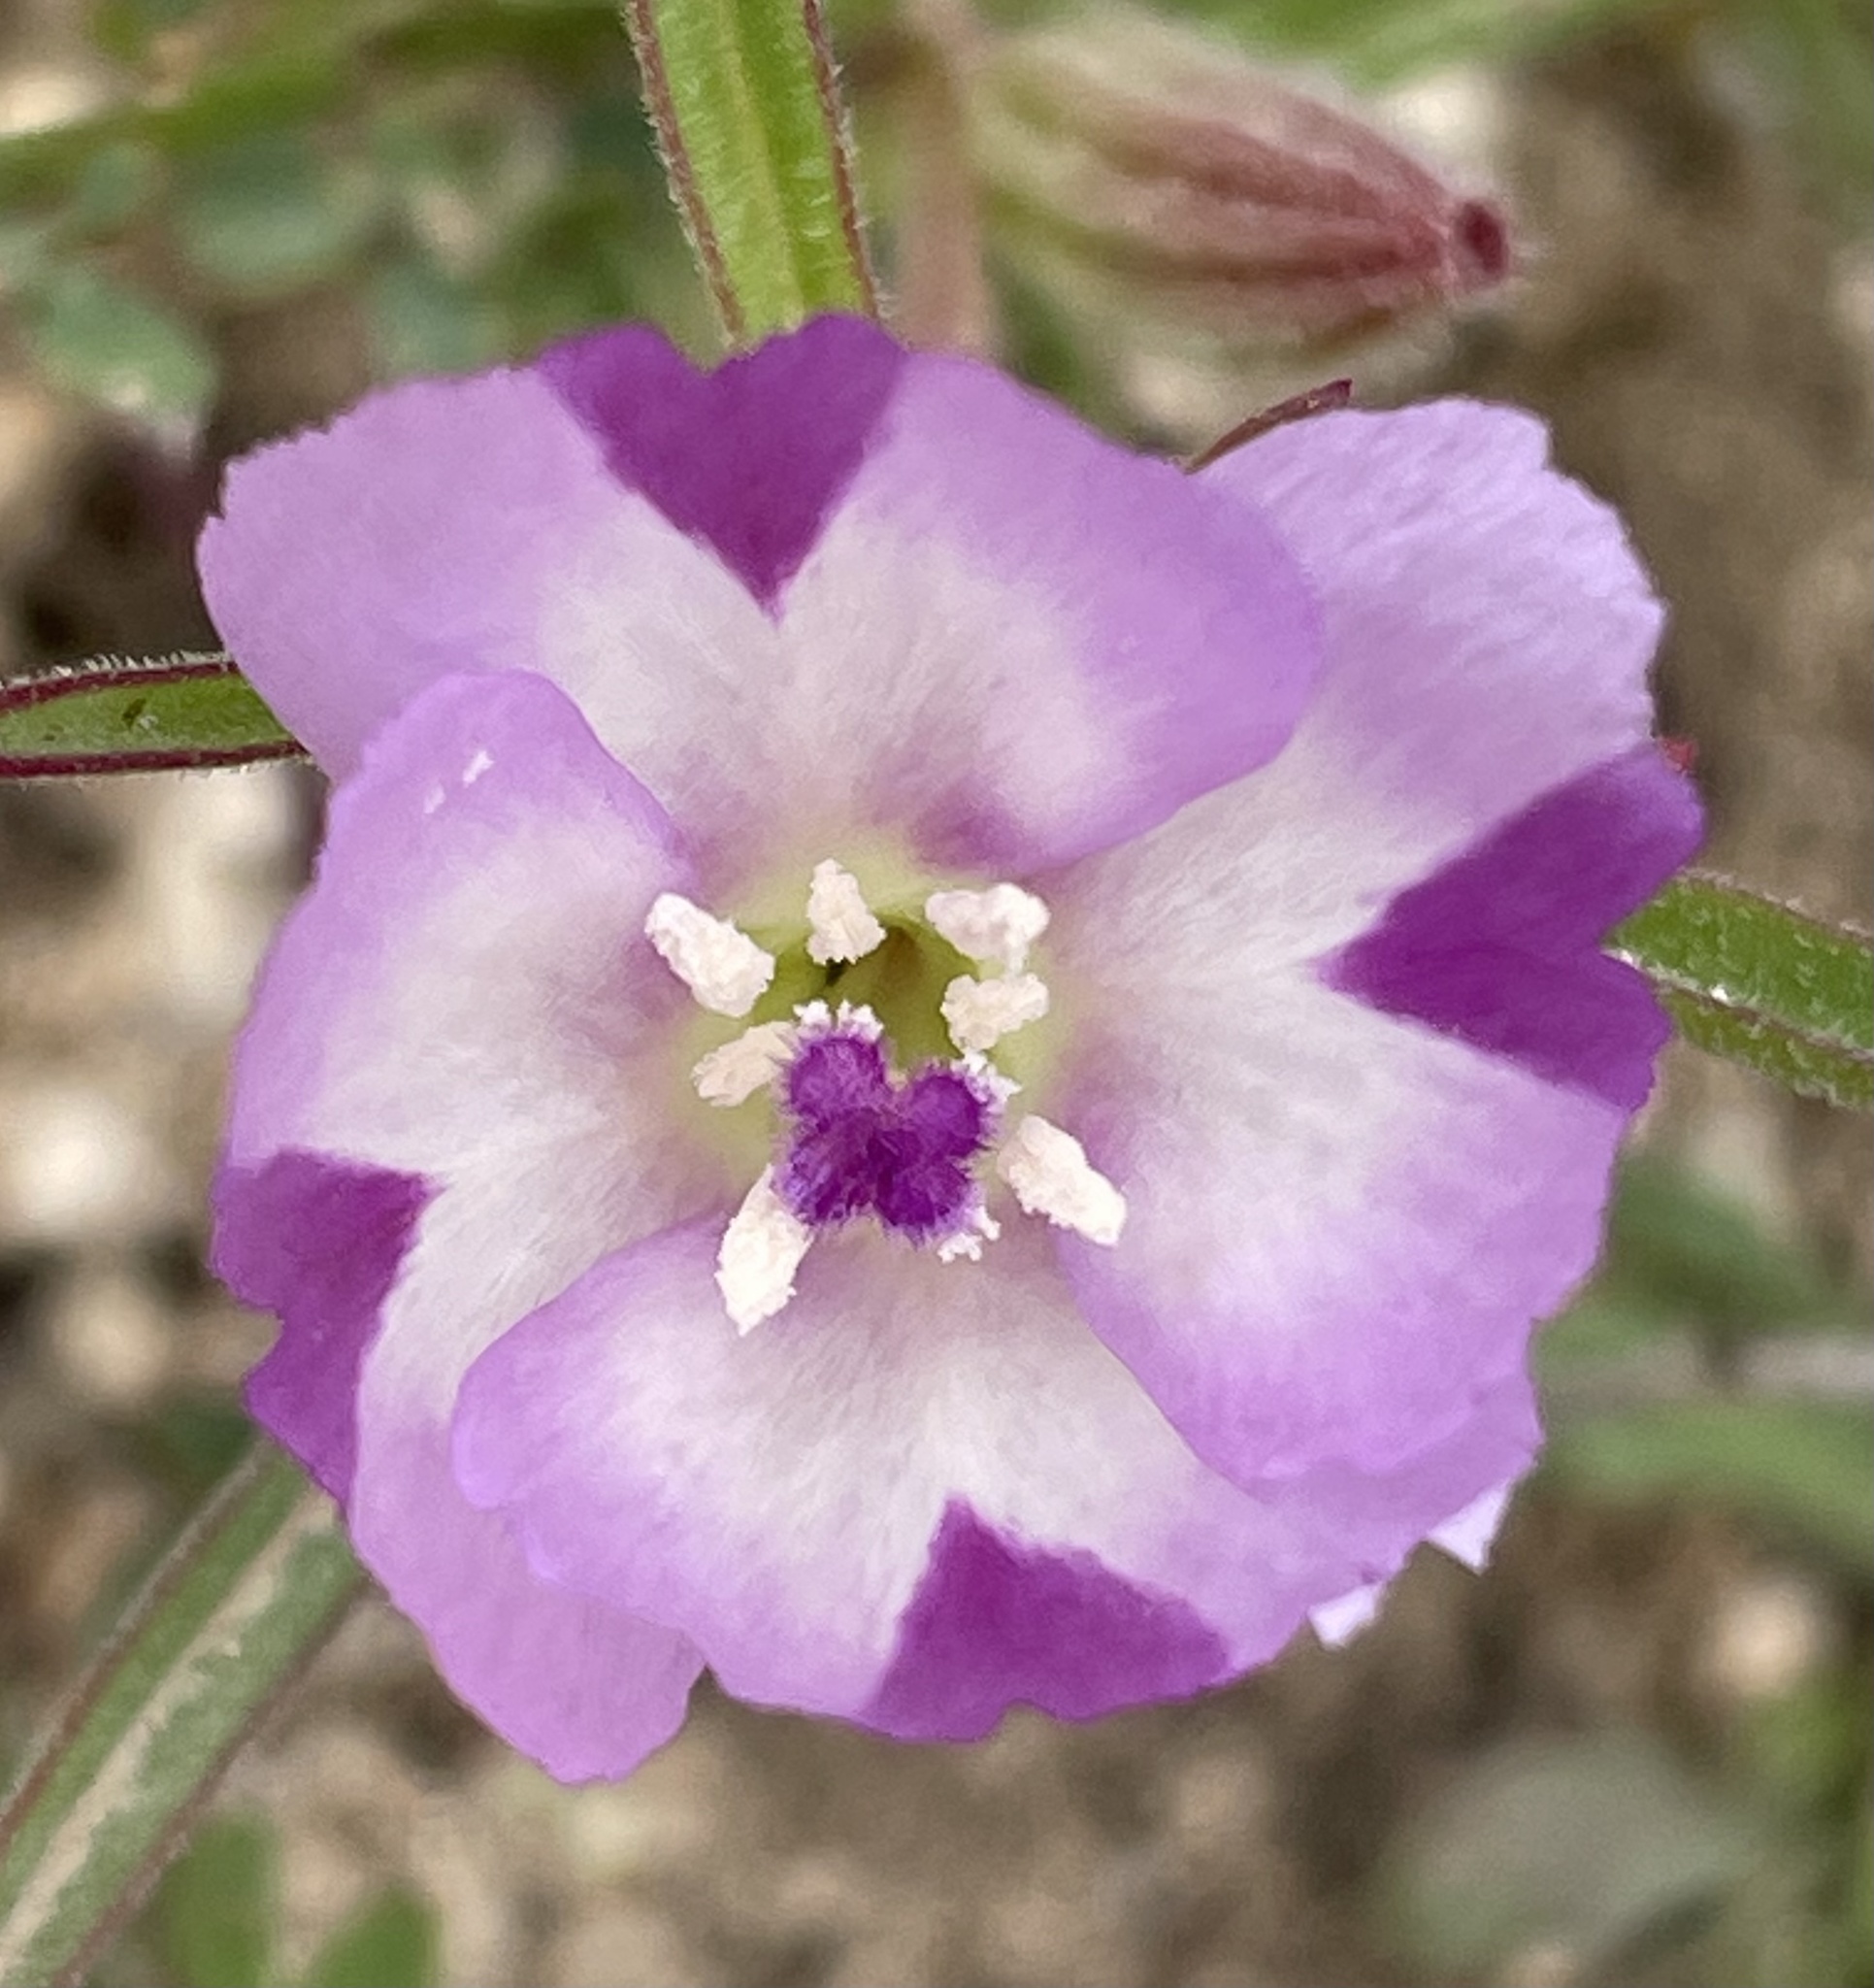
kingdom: Plantae
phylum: Tracheophyta
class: Magnoliopsida
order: Myrtales
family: Onagraceae
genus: Clarkia
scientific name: Clarkia purpurea
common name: Purple clarkia
